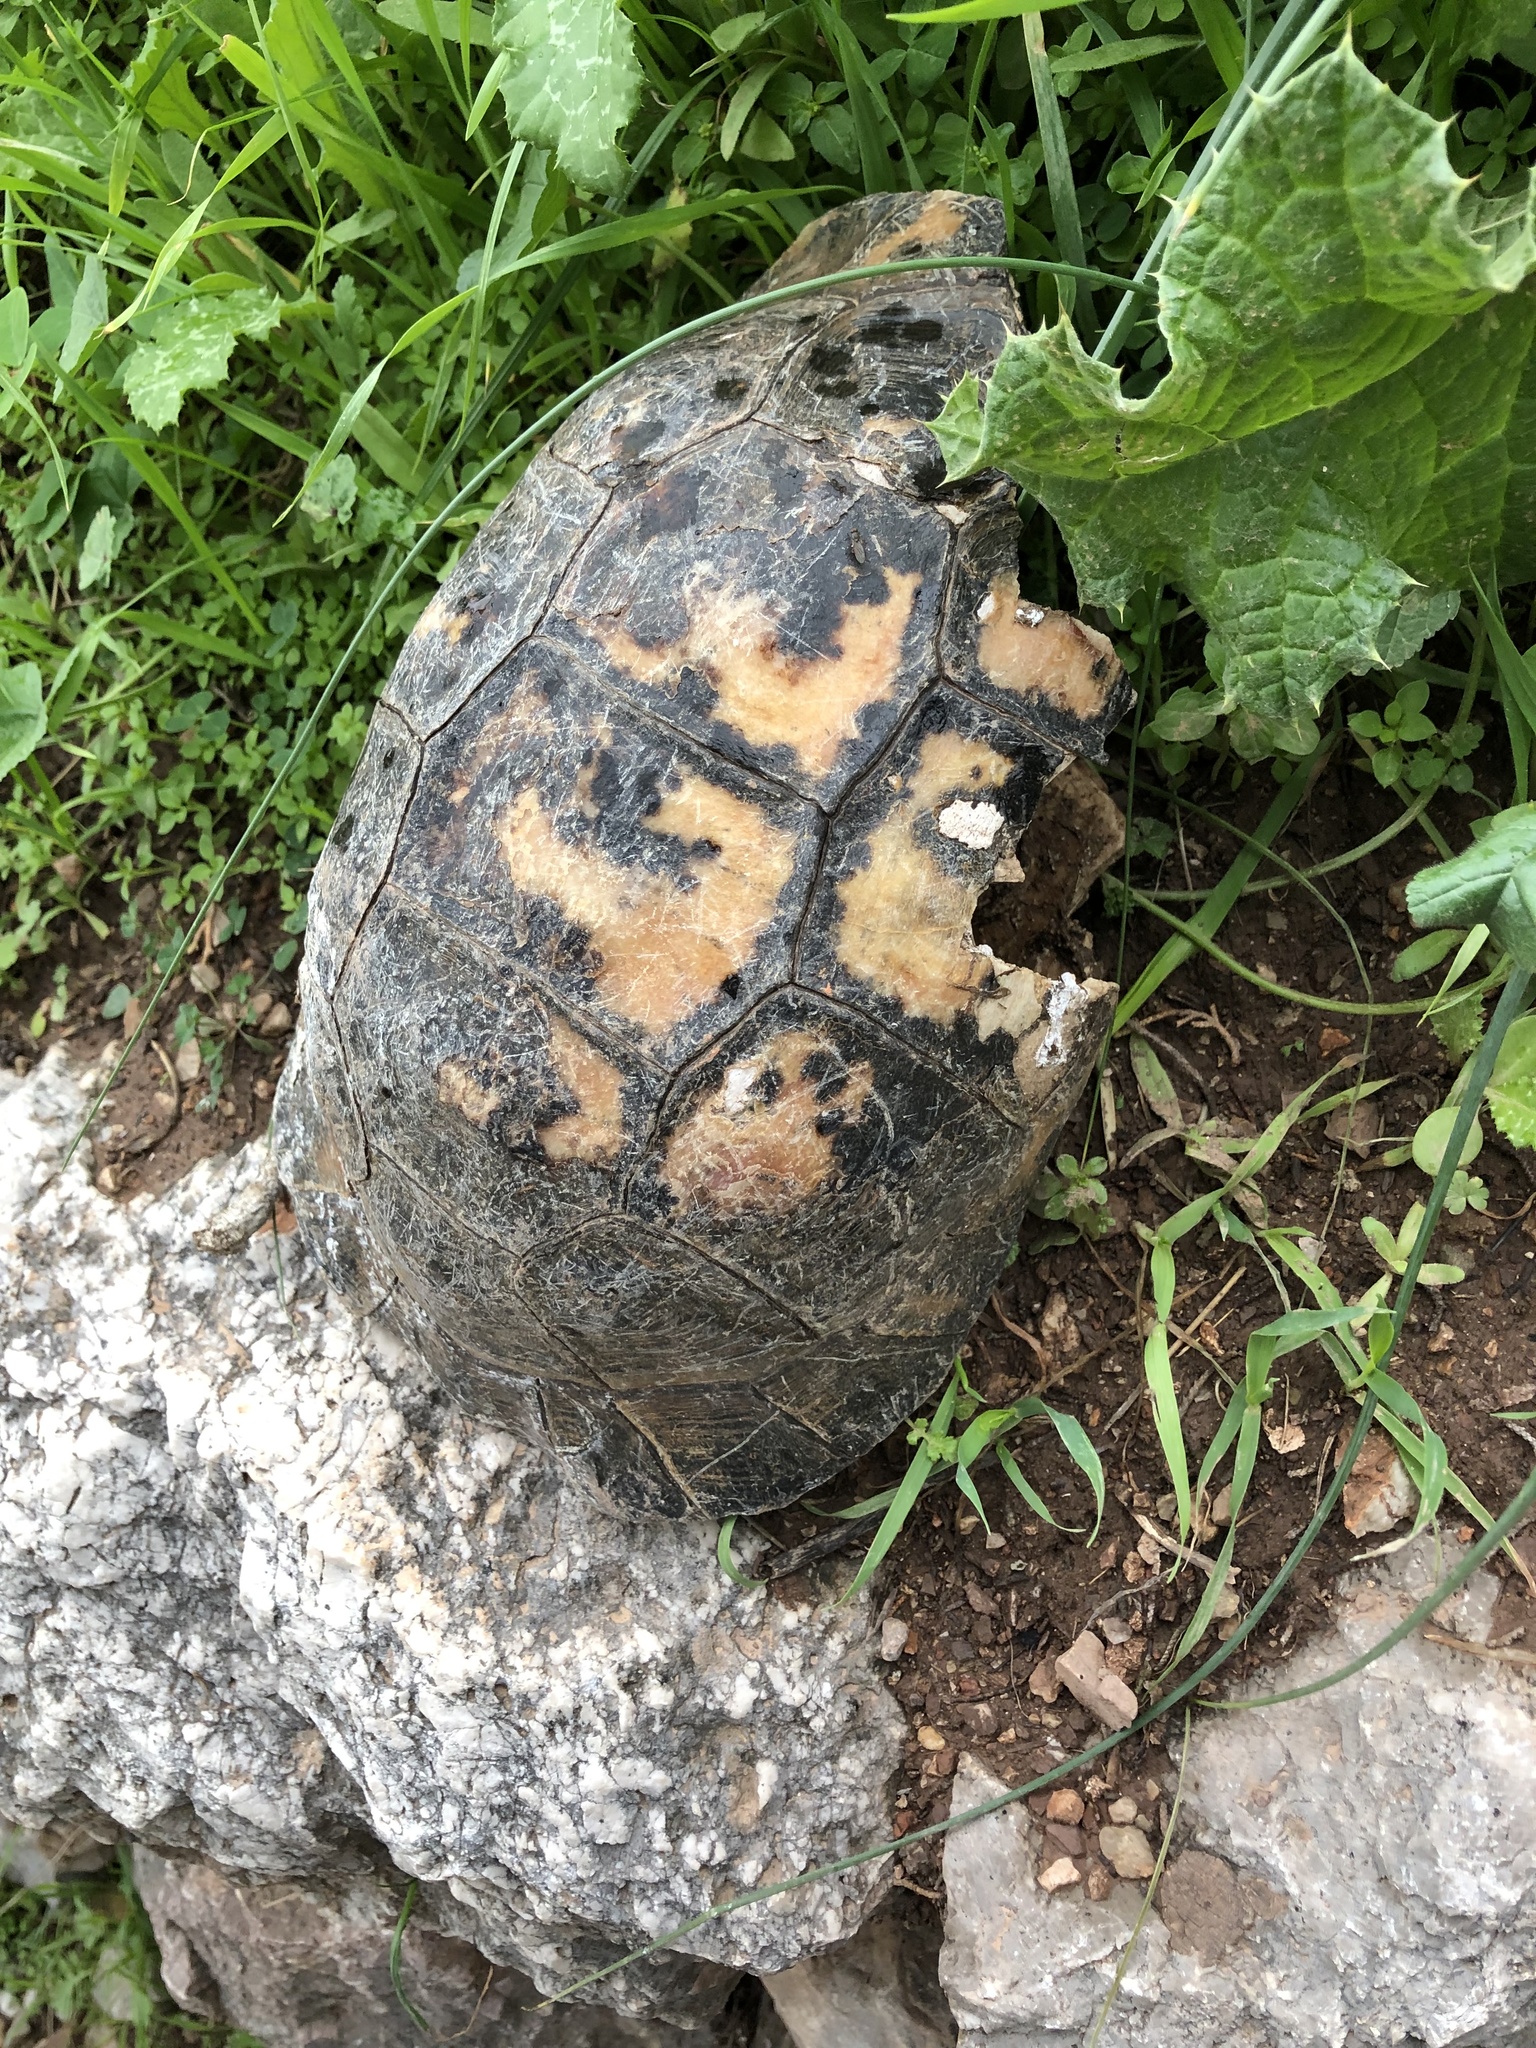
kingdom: Animalia
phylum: Chordata
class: Testudines
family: Testudinidae
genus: Testudo
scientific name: Testudo marginata
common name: Marginated tortoise
